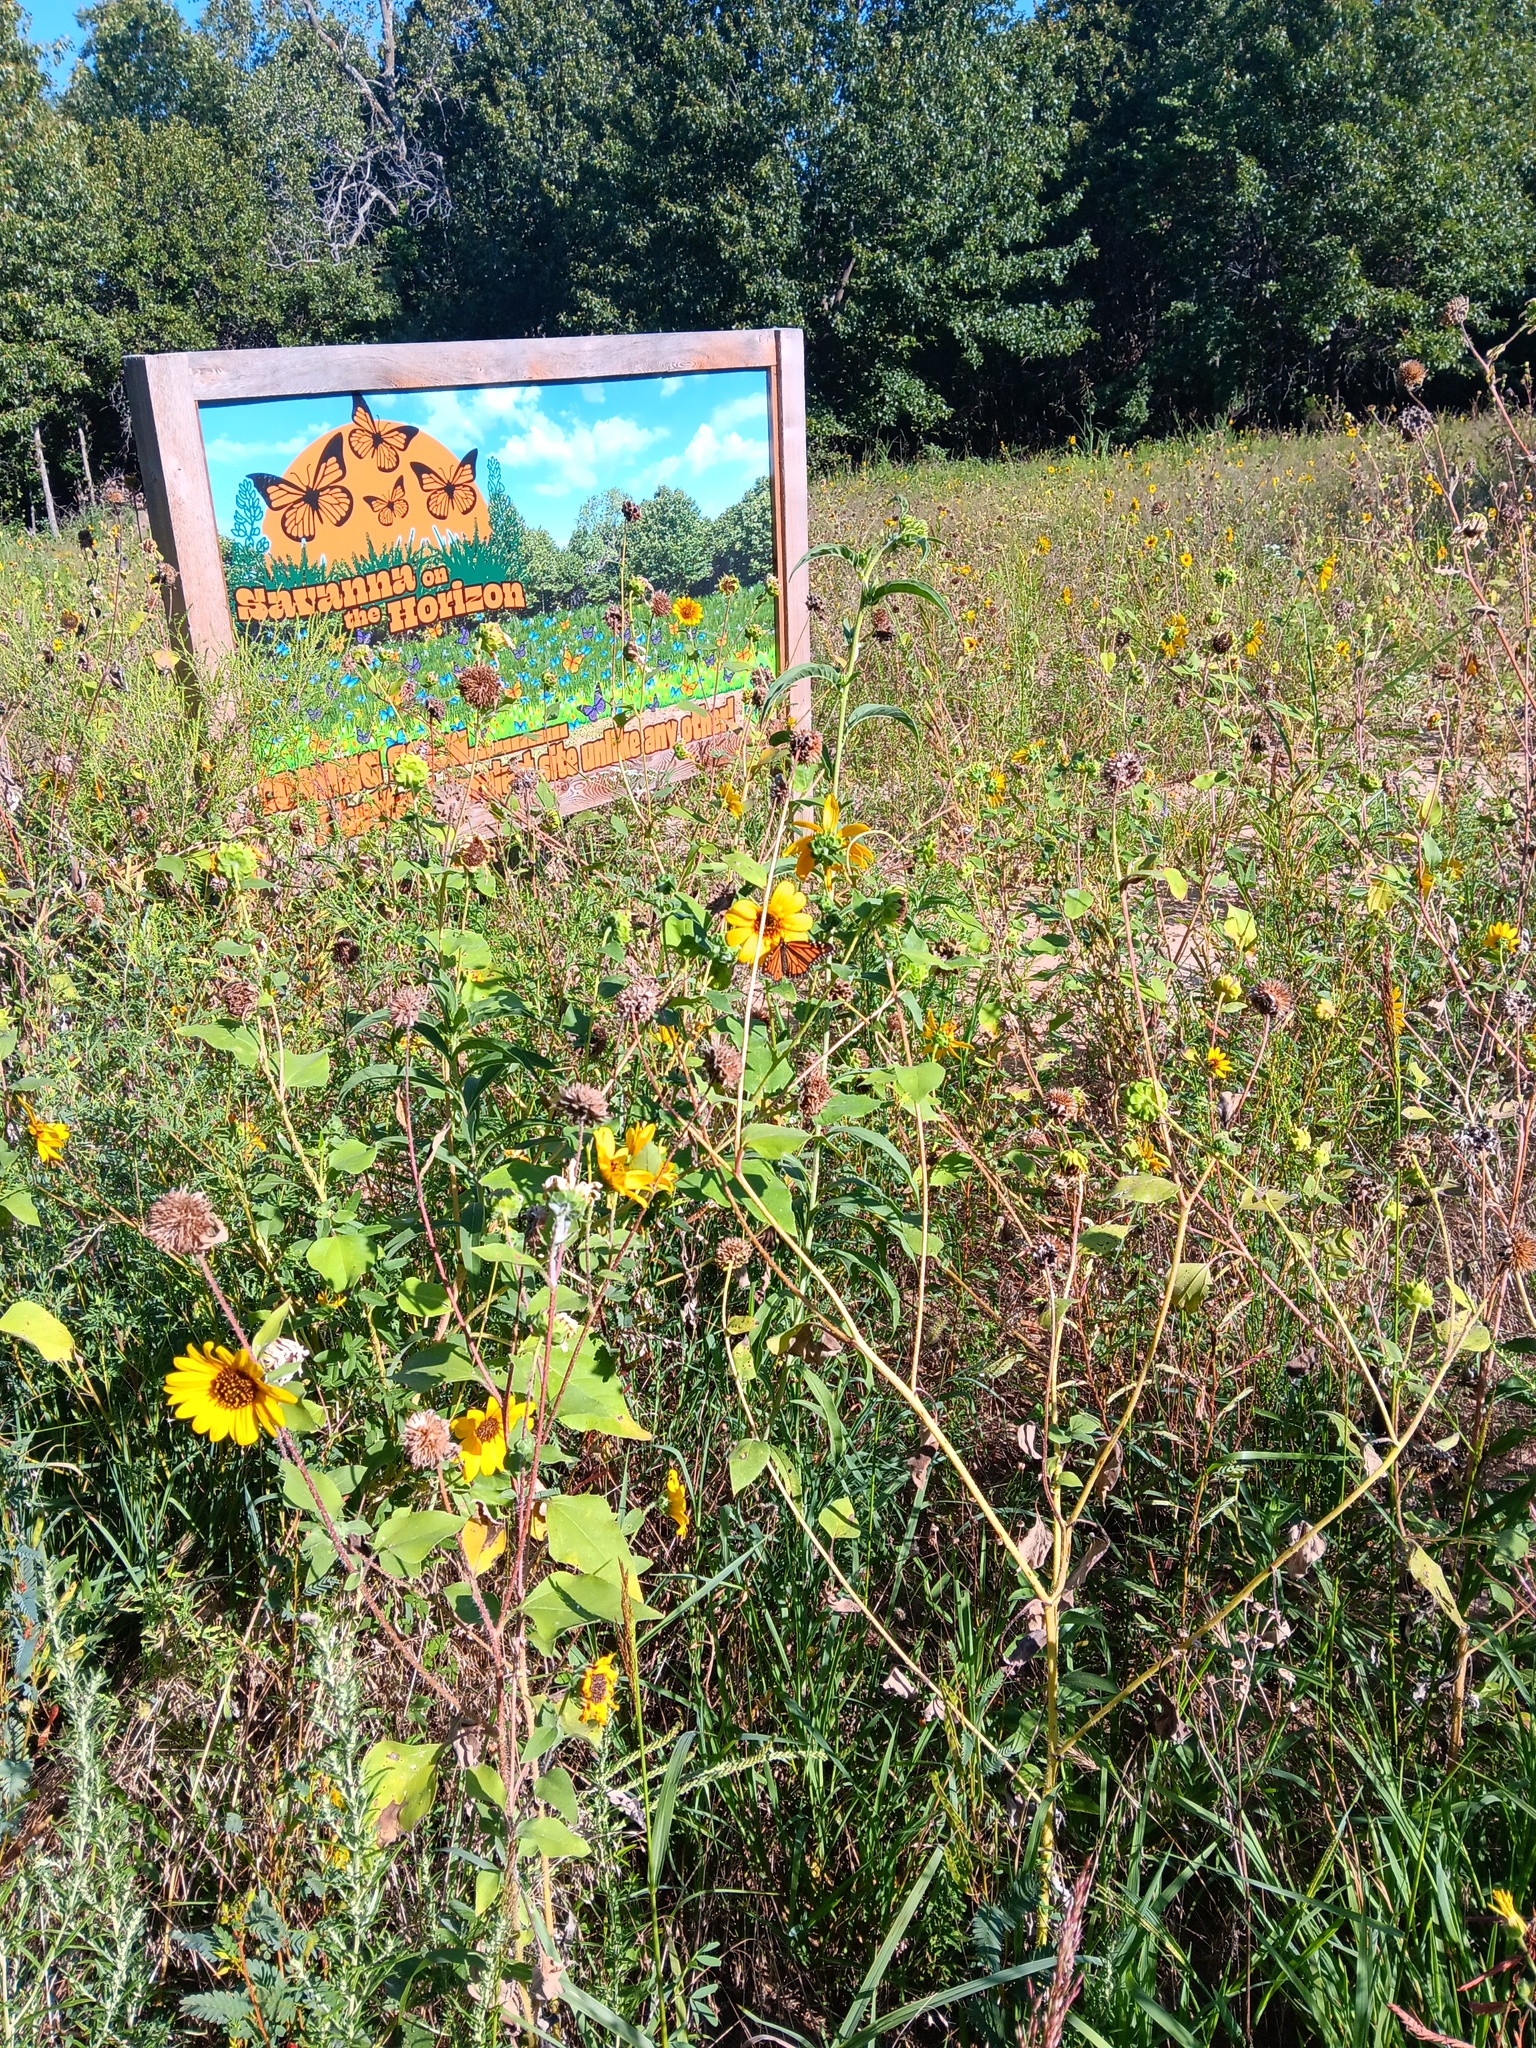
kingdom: Animalia
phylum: Arthropoda
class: Insecta
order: Lepidoptera
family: Nymphalidae
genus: Danaus
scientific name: Danaus plexippus
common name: Monarch
